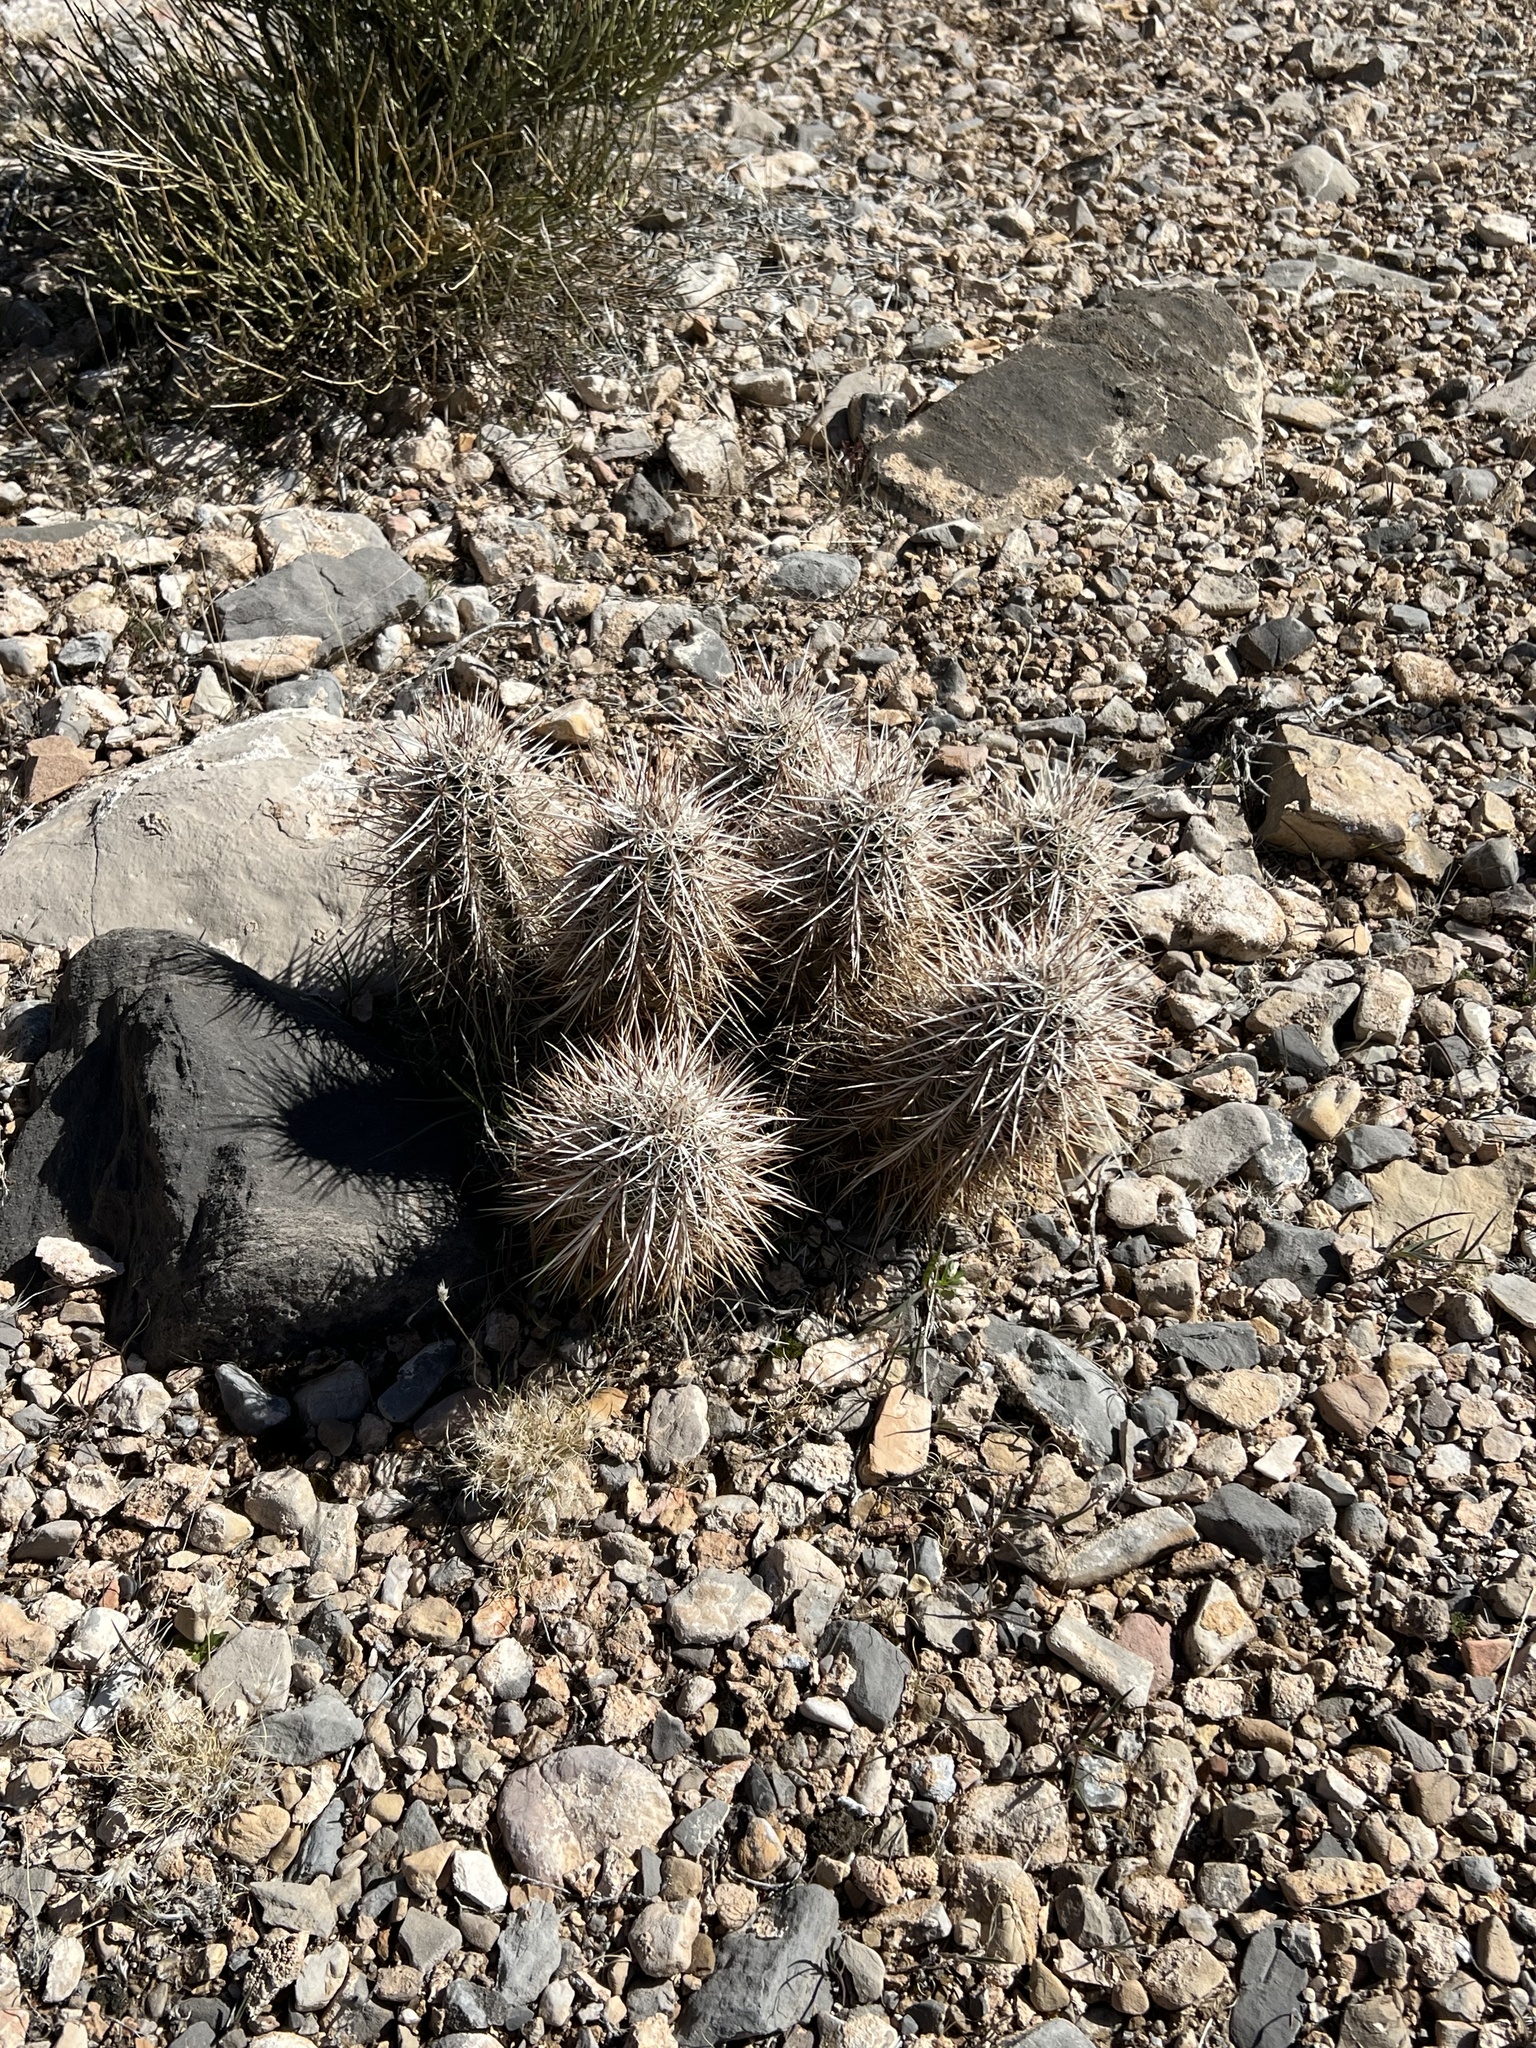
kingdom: Plantae
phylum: Tracheophyta
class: Magnoliopsida
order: Caryophyllales
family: Cactaceae
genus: Echinocereus
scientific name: Echinocereus engelmannii
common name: Engelmann's hedgehog cactus
